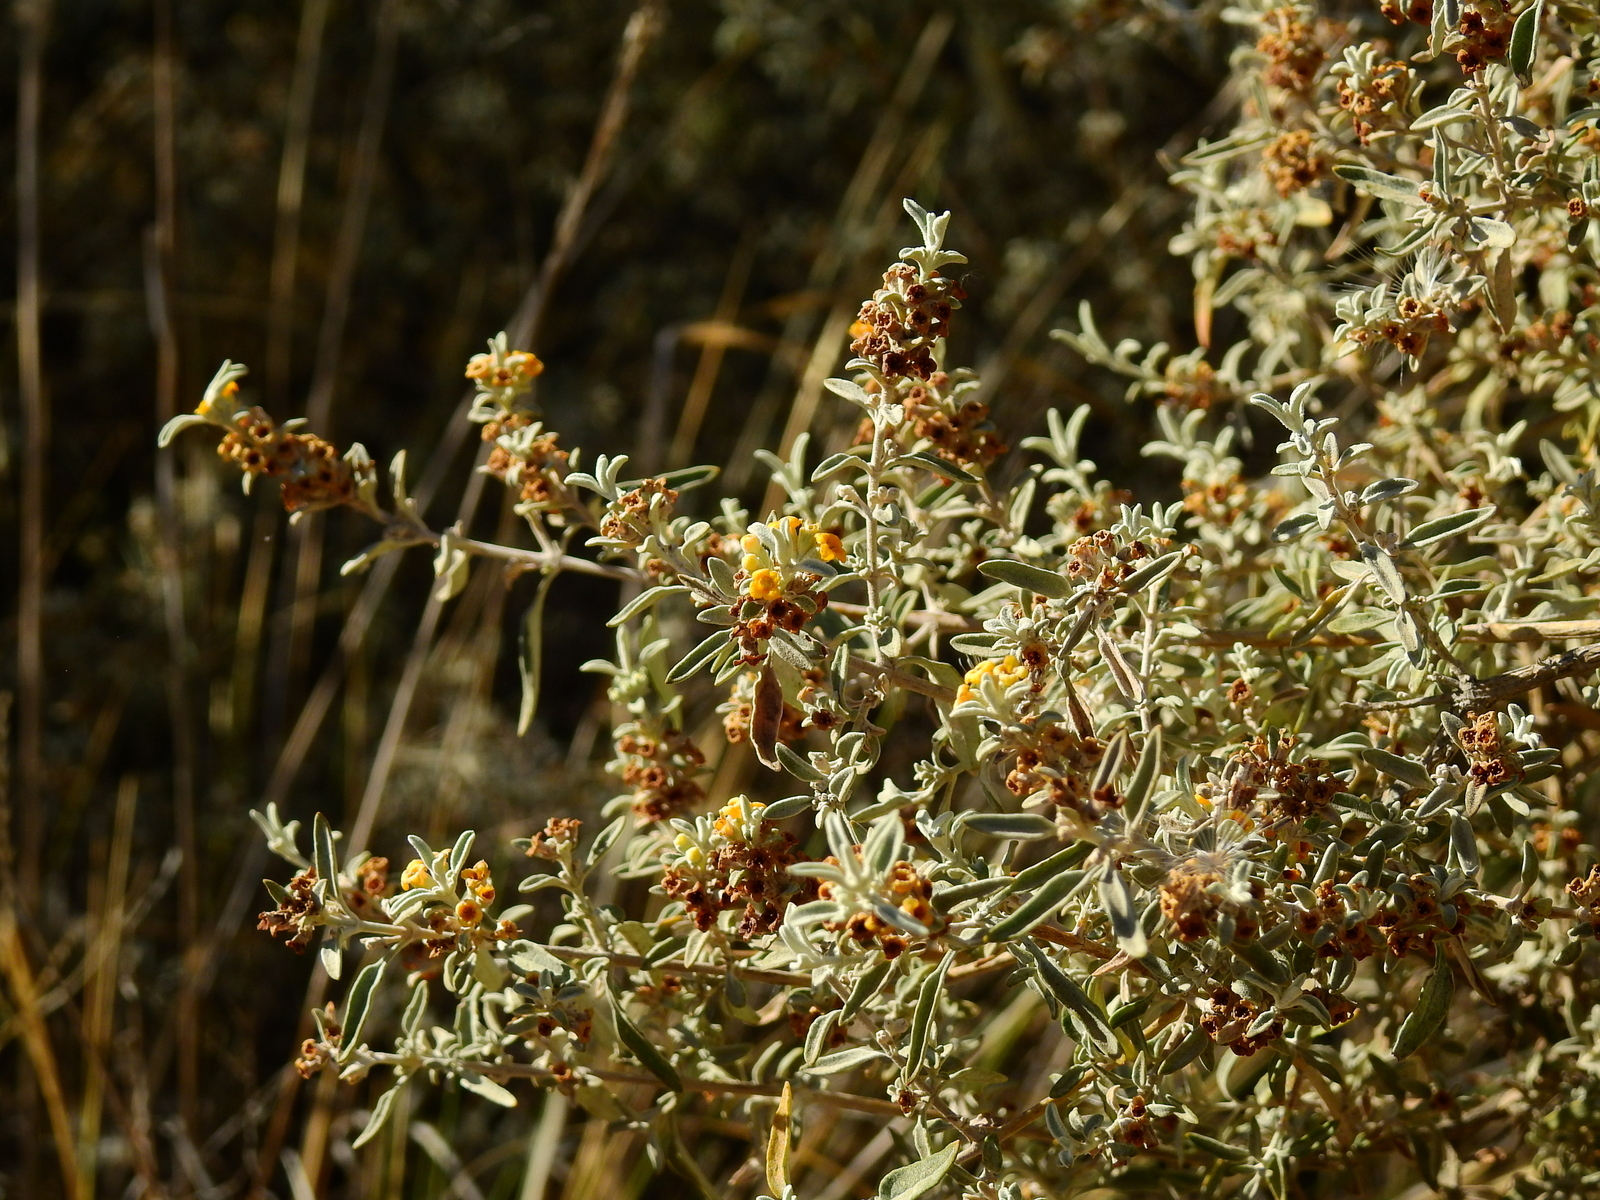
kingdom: Plantae
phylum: Tracheophyta
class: Magnoliopsida
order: Lamiales
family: Scrophulariaceae
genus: Buddleja
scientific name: Buddleja mendozensis
